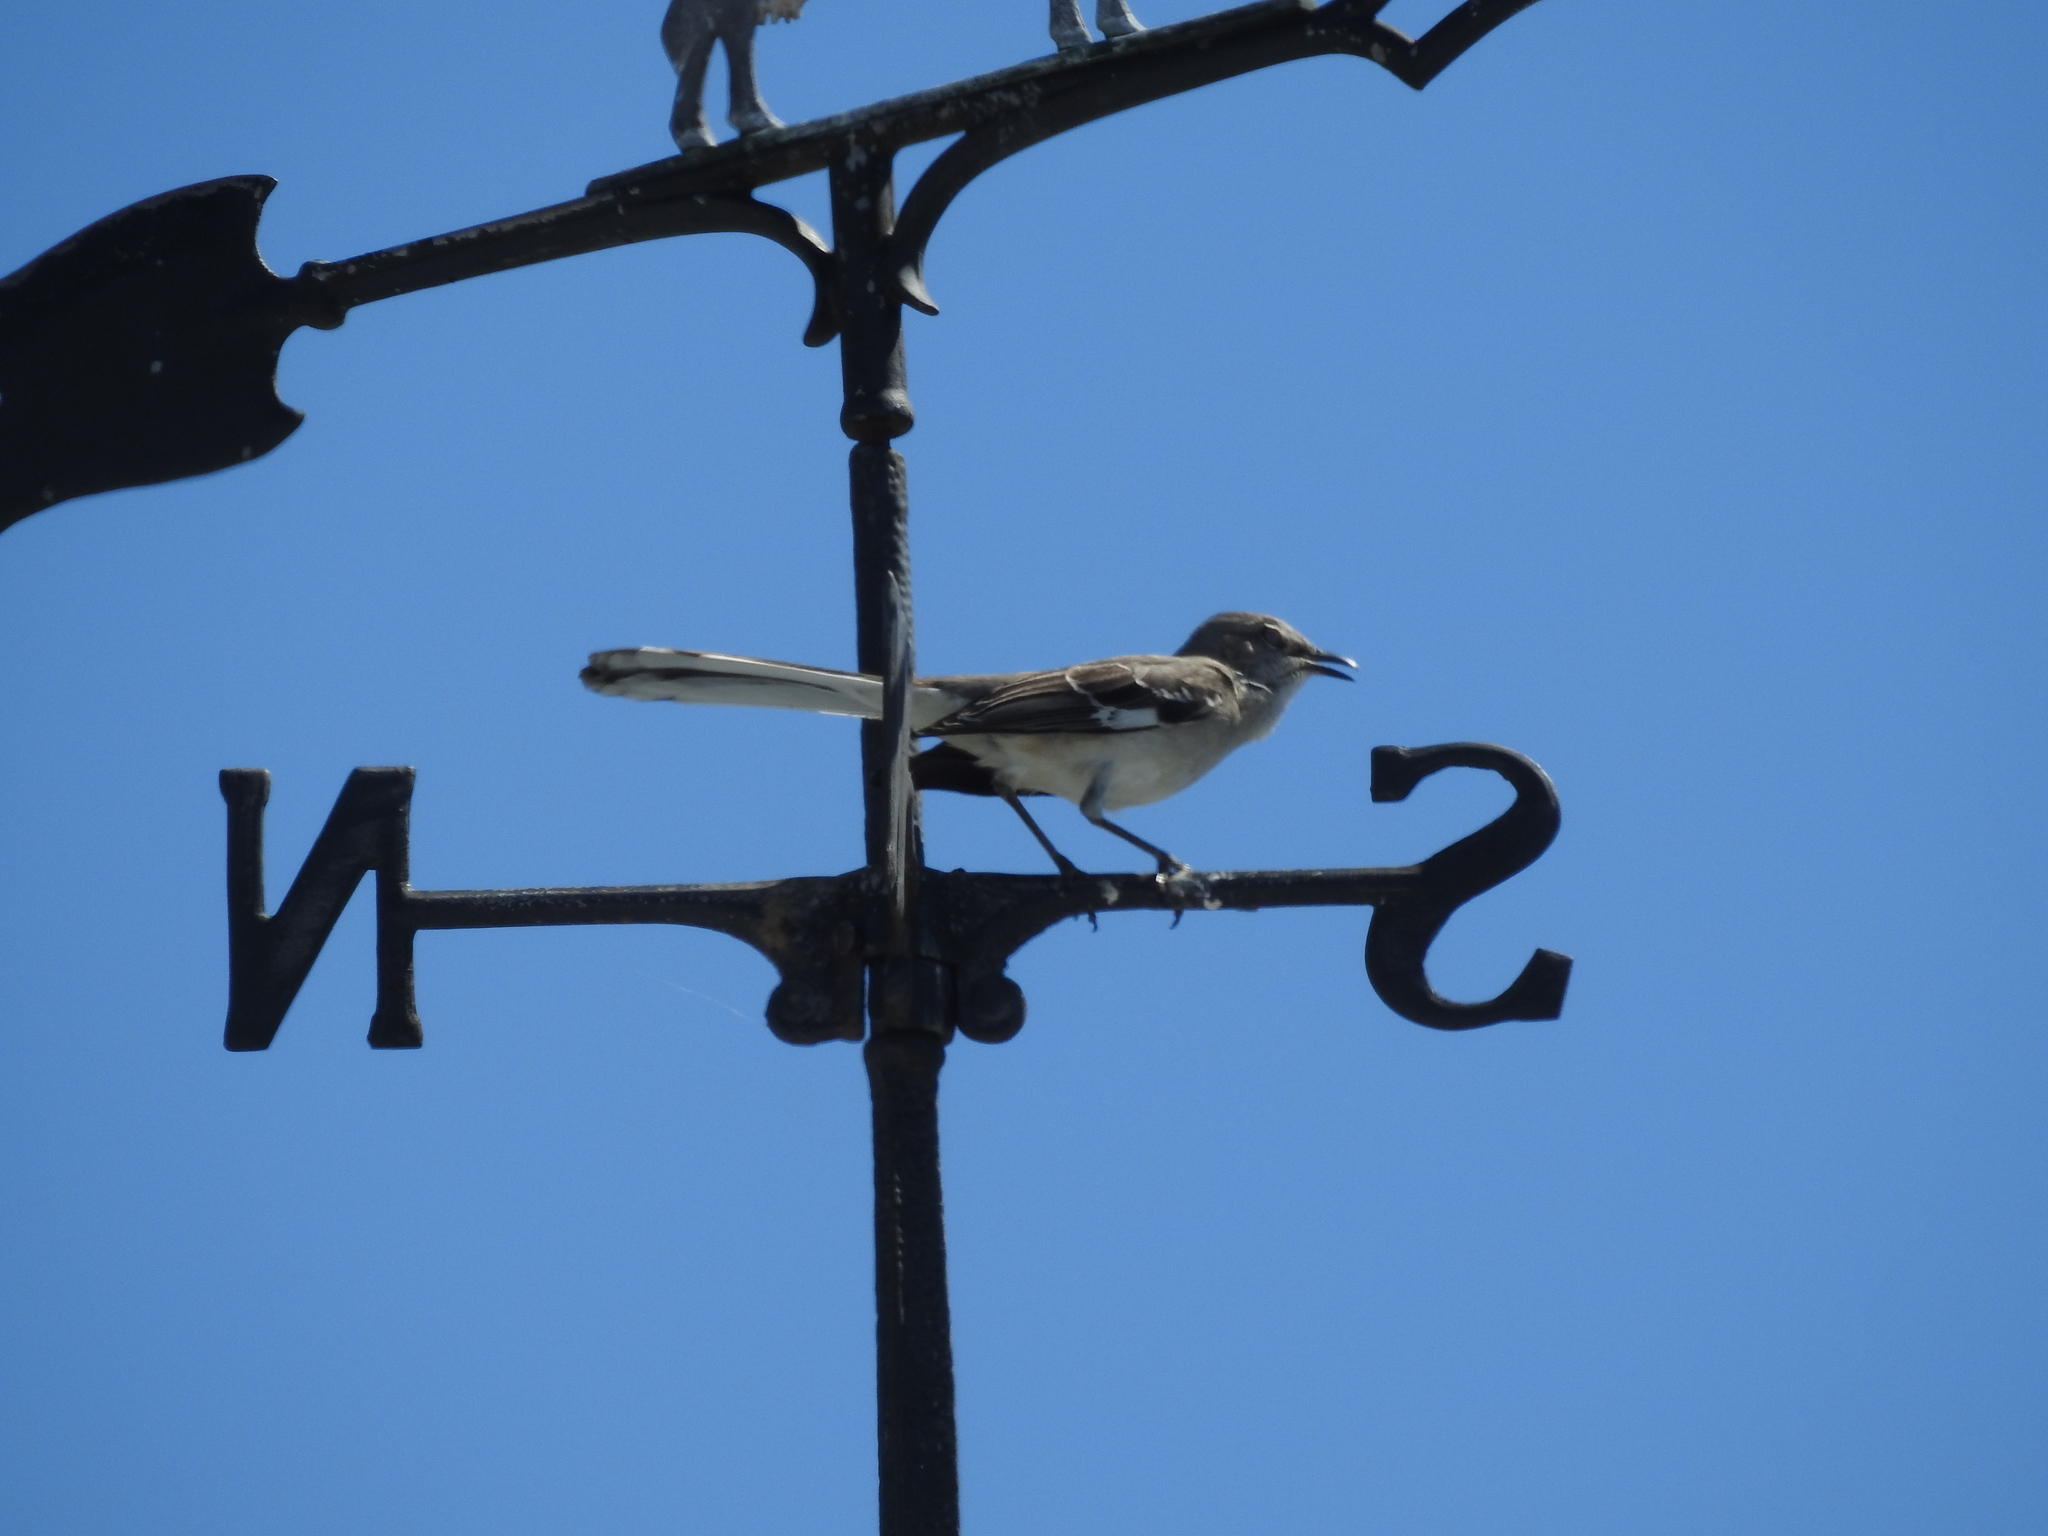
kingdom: Animalia
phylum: Chordata
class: Aves
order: Passeriformes
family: Mimidae
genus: Mimus
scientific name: Mimus polyglottos
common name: Northern mockingbird
